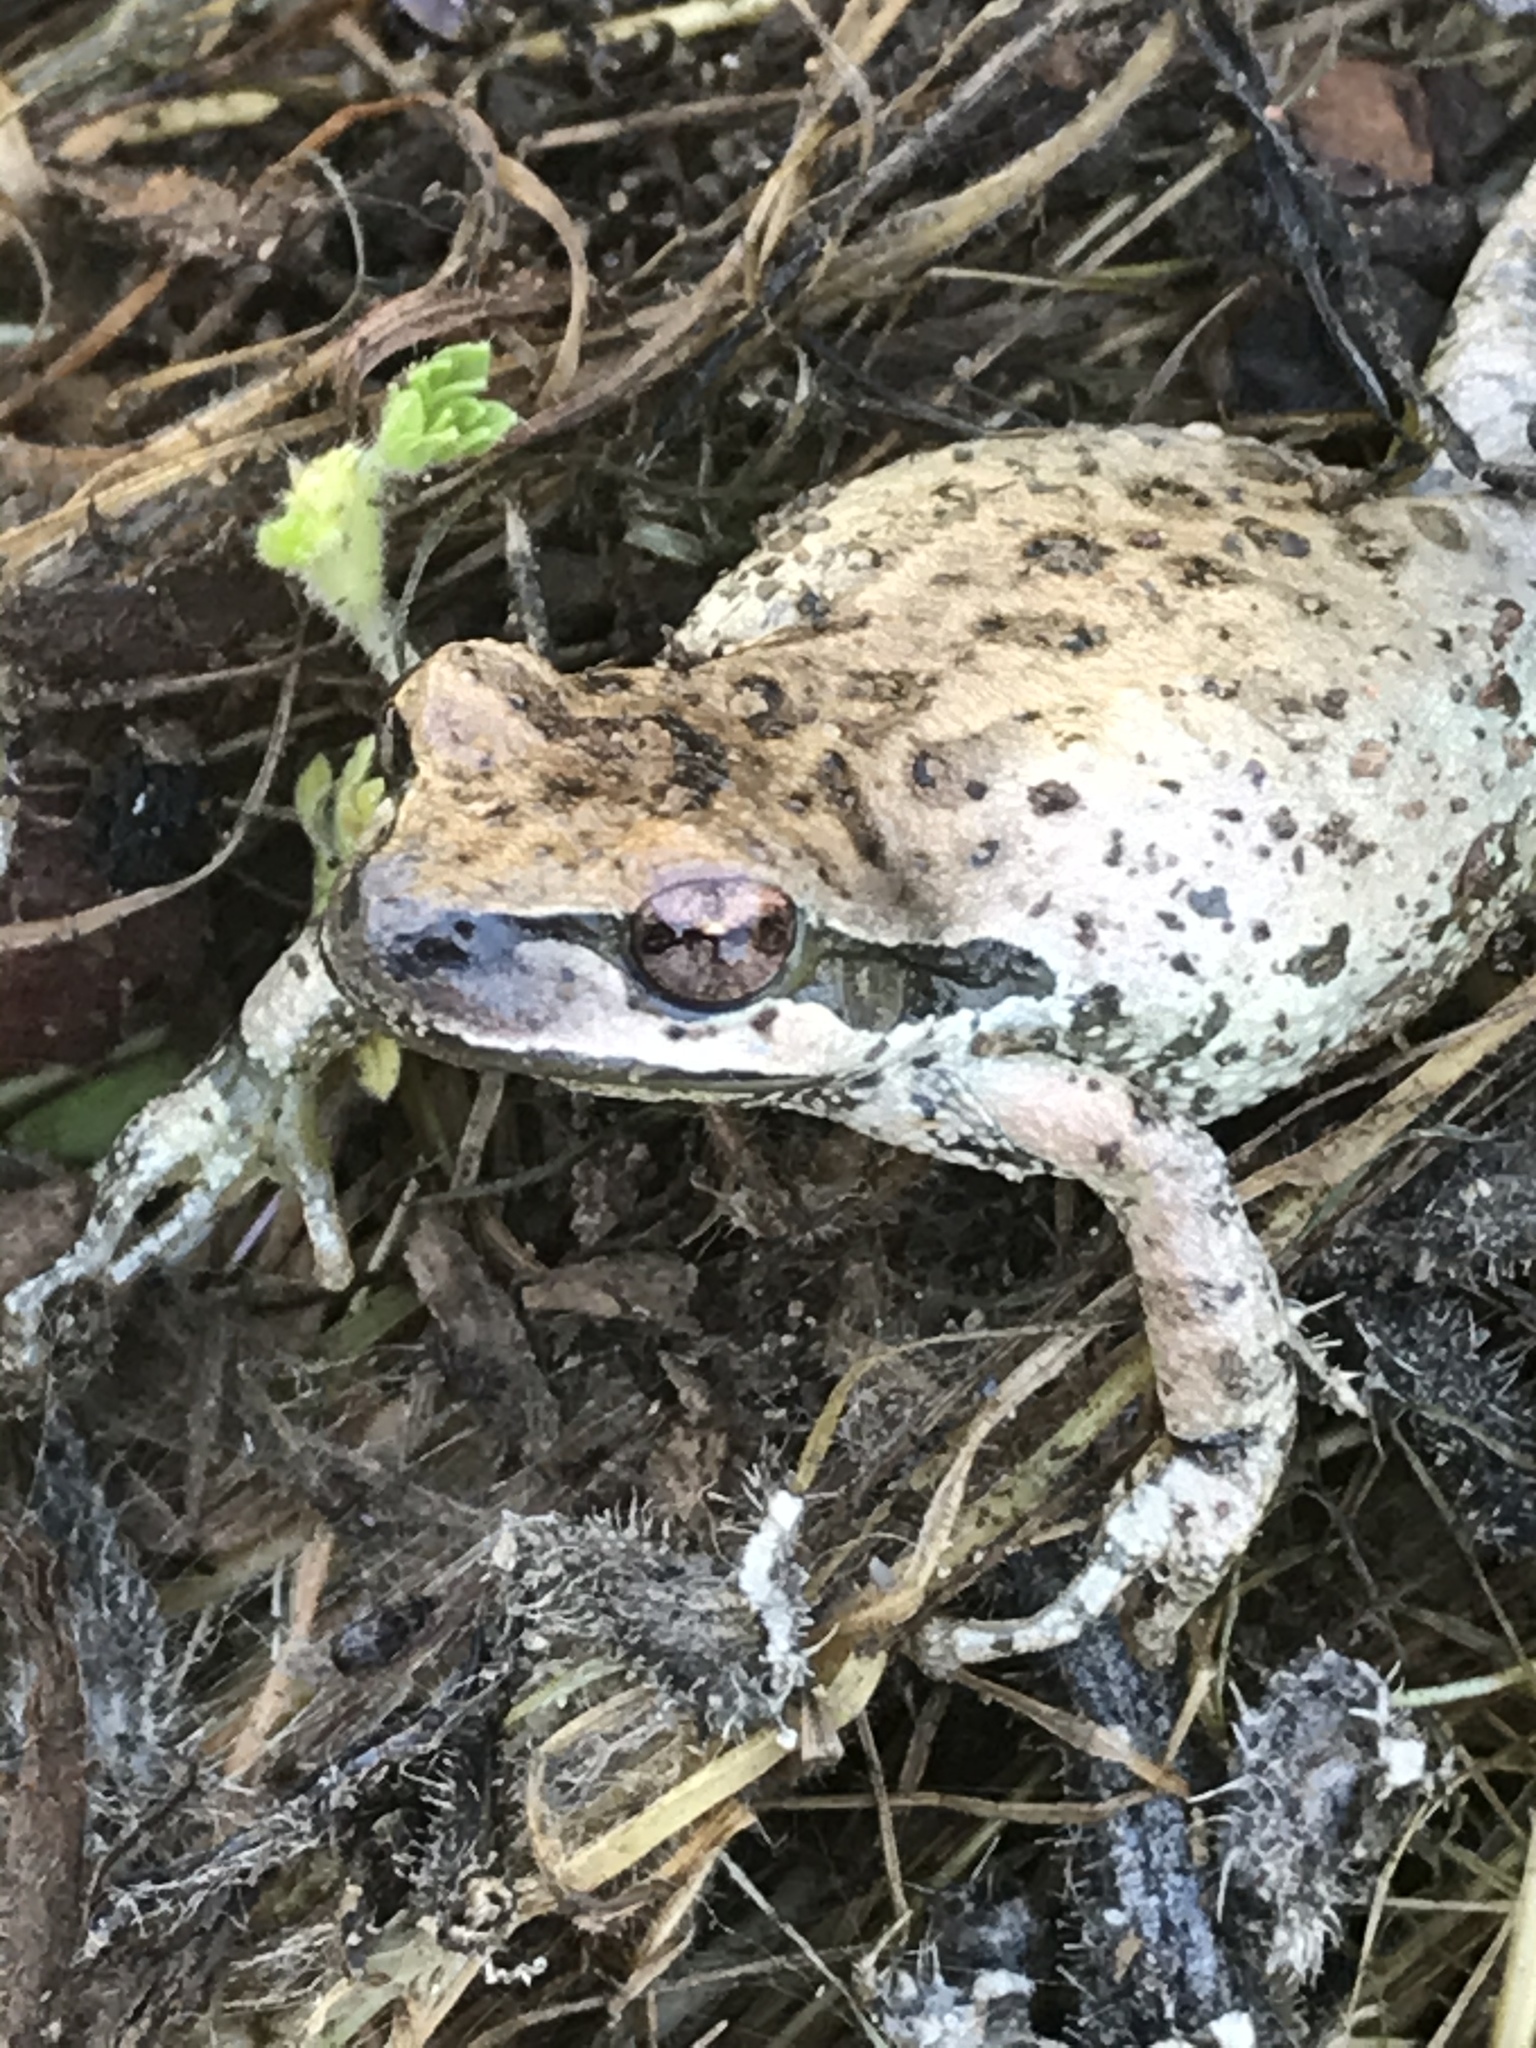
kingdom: Animalia
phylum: Chordata
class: Amphibia
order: Anura
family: Hylidae
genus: Pseudacris
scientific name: Pseudacris regilla
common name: Pacific chorus frog
